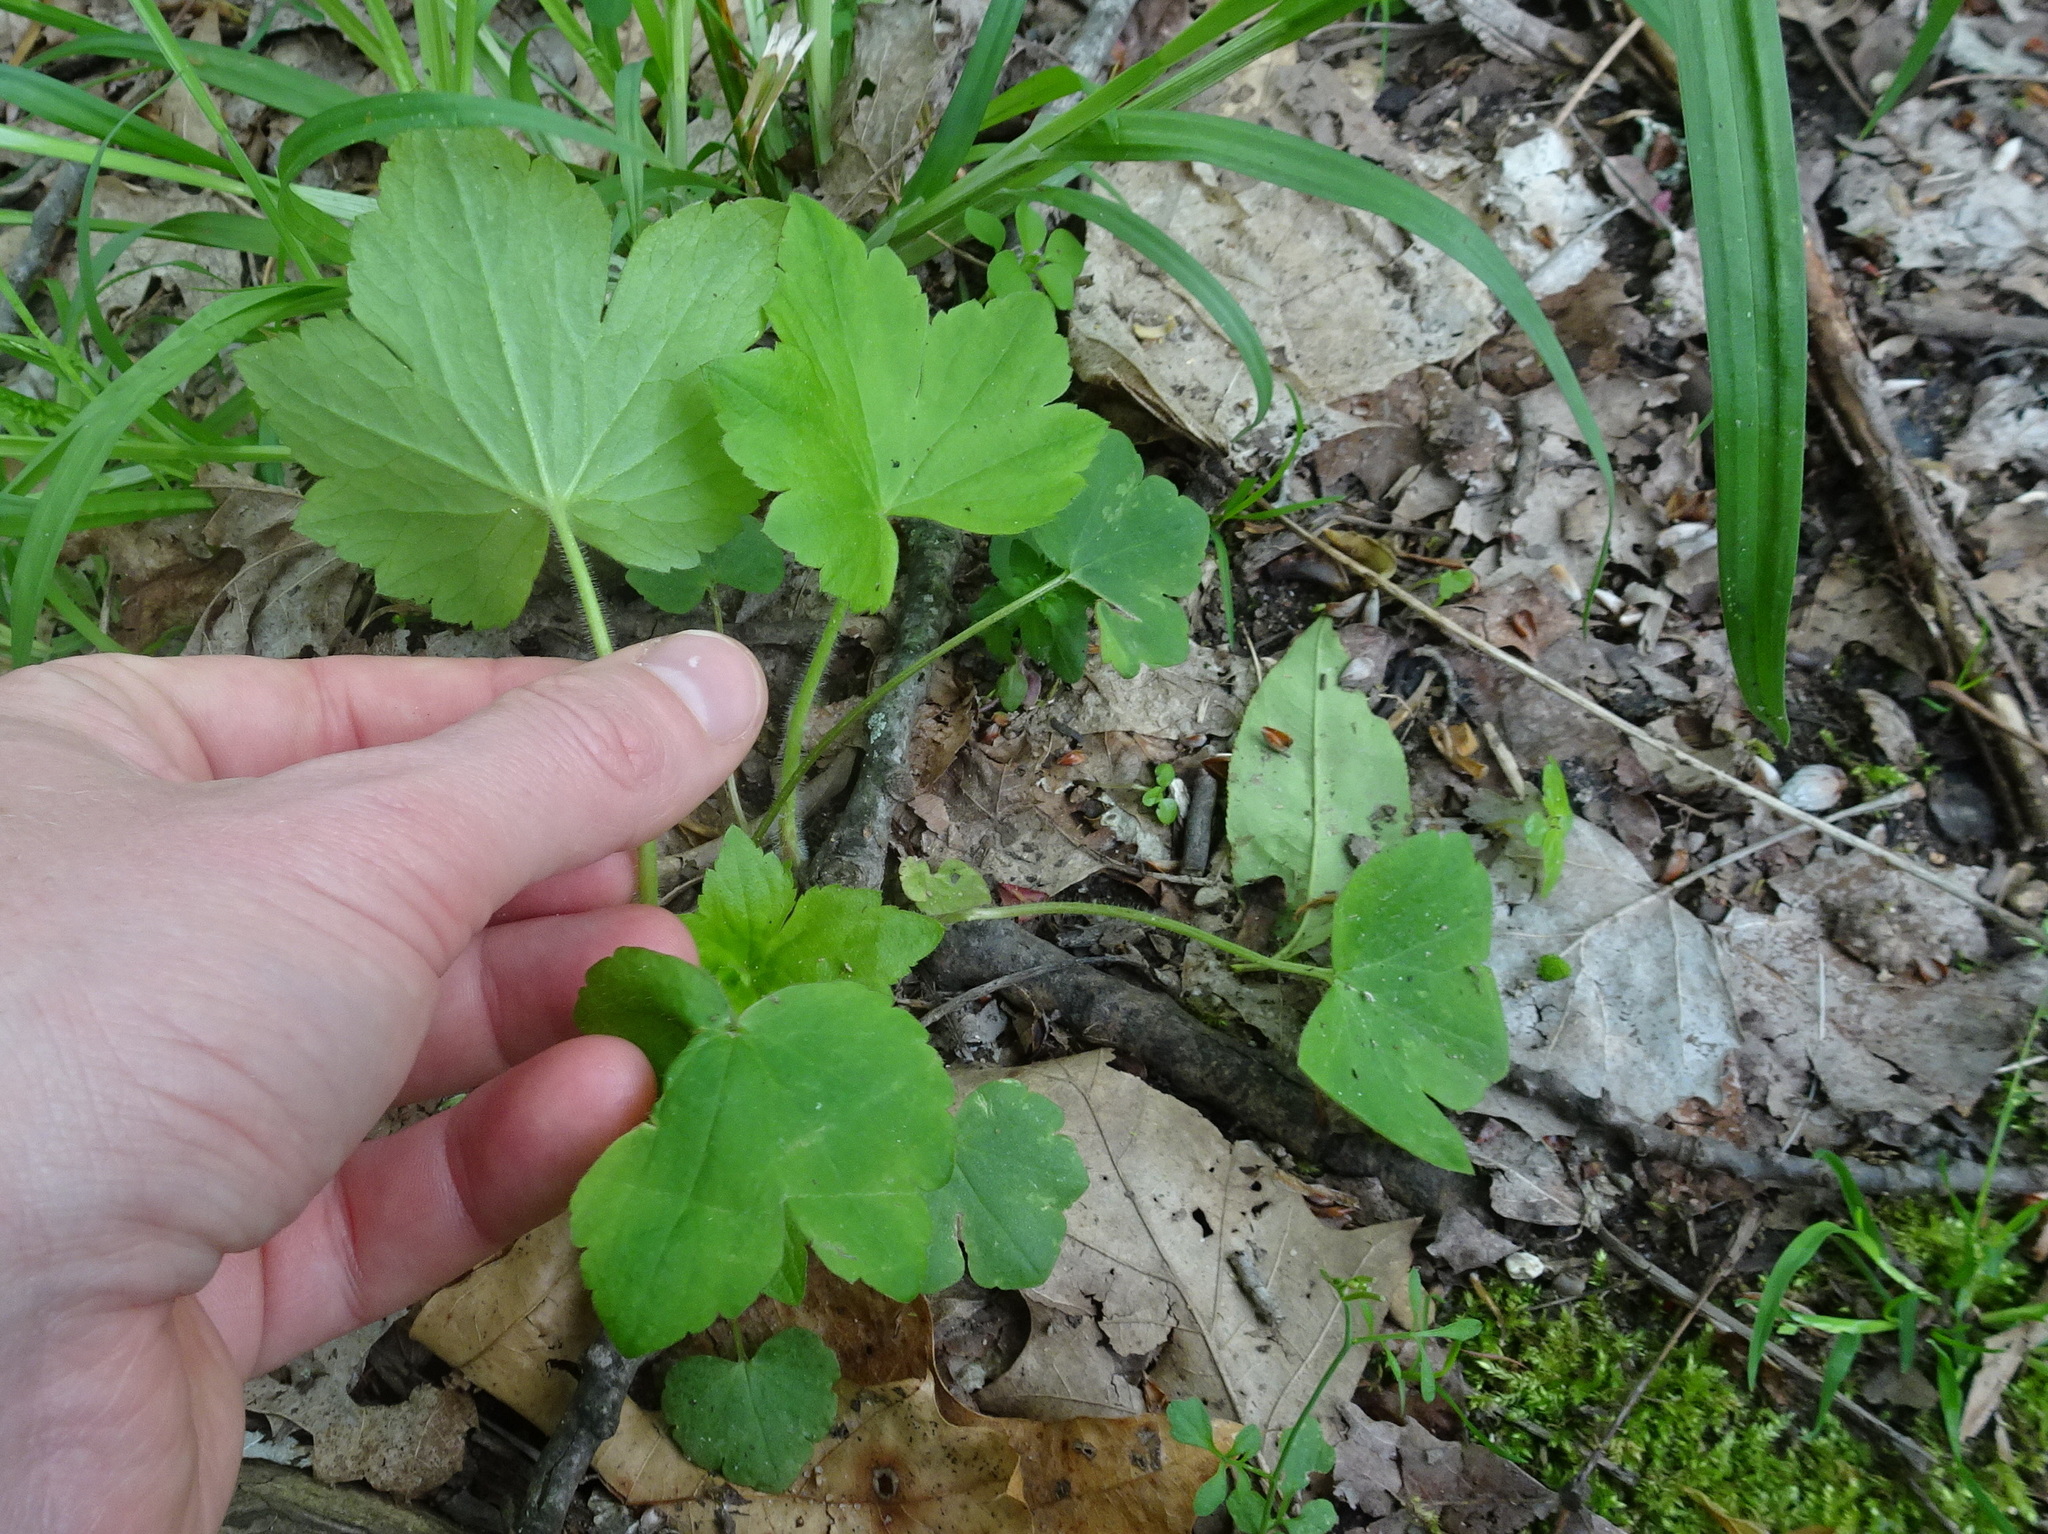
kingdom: Plantae
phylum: Tracheophyta
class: Magnoliopsida
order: Ranunculales
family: Ranunculaceae
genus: Ranunculus
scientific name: Ranunculus recurvatus
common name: Blisterwort
